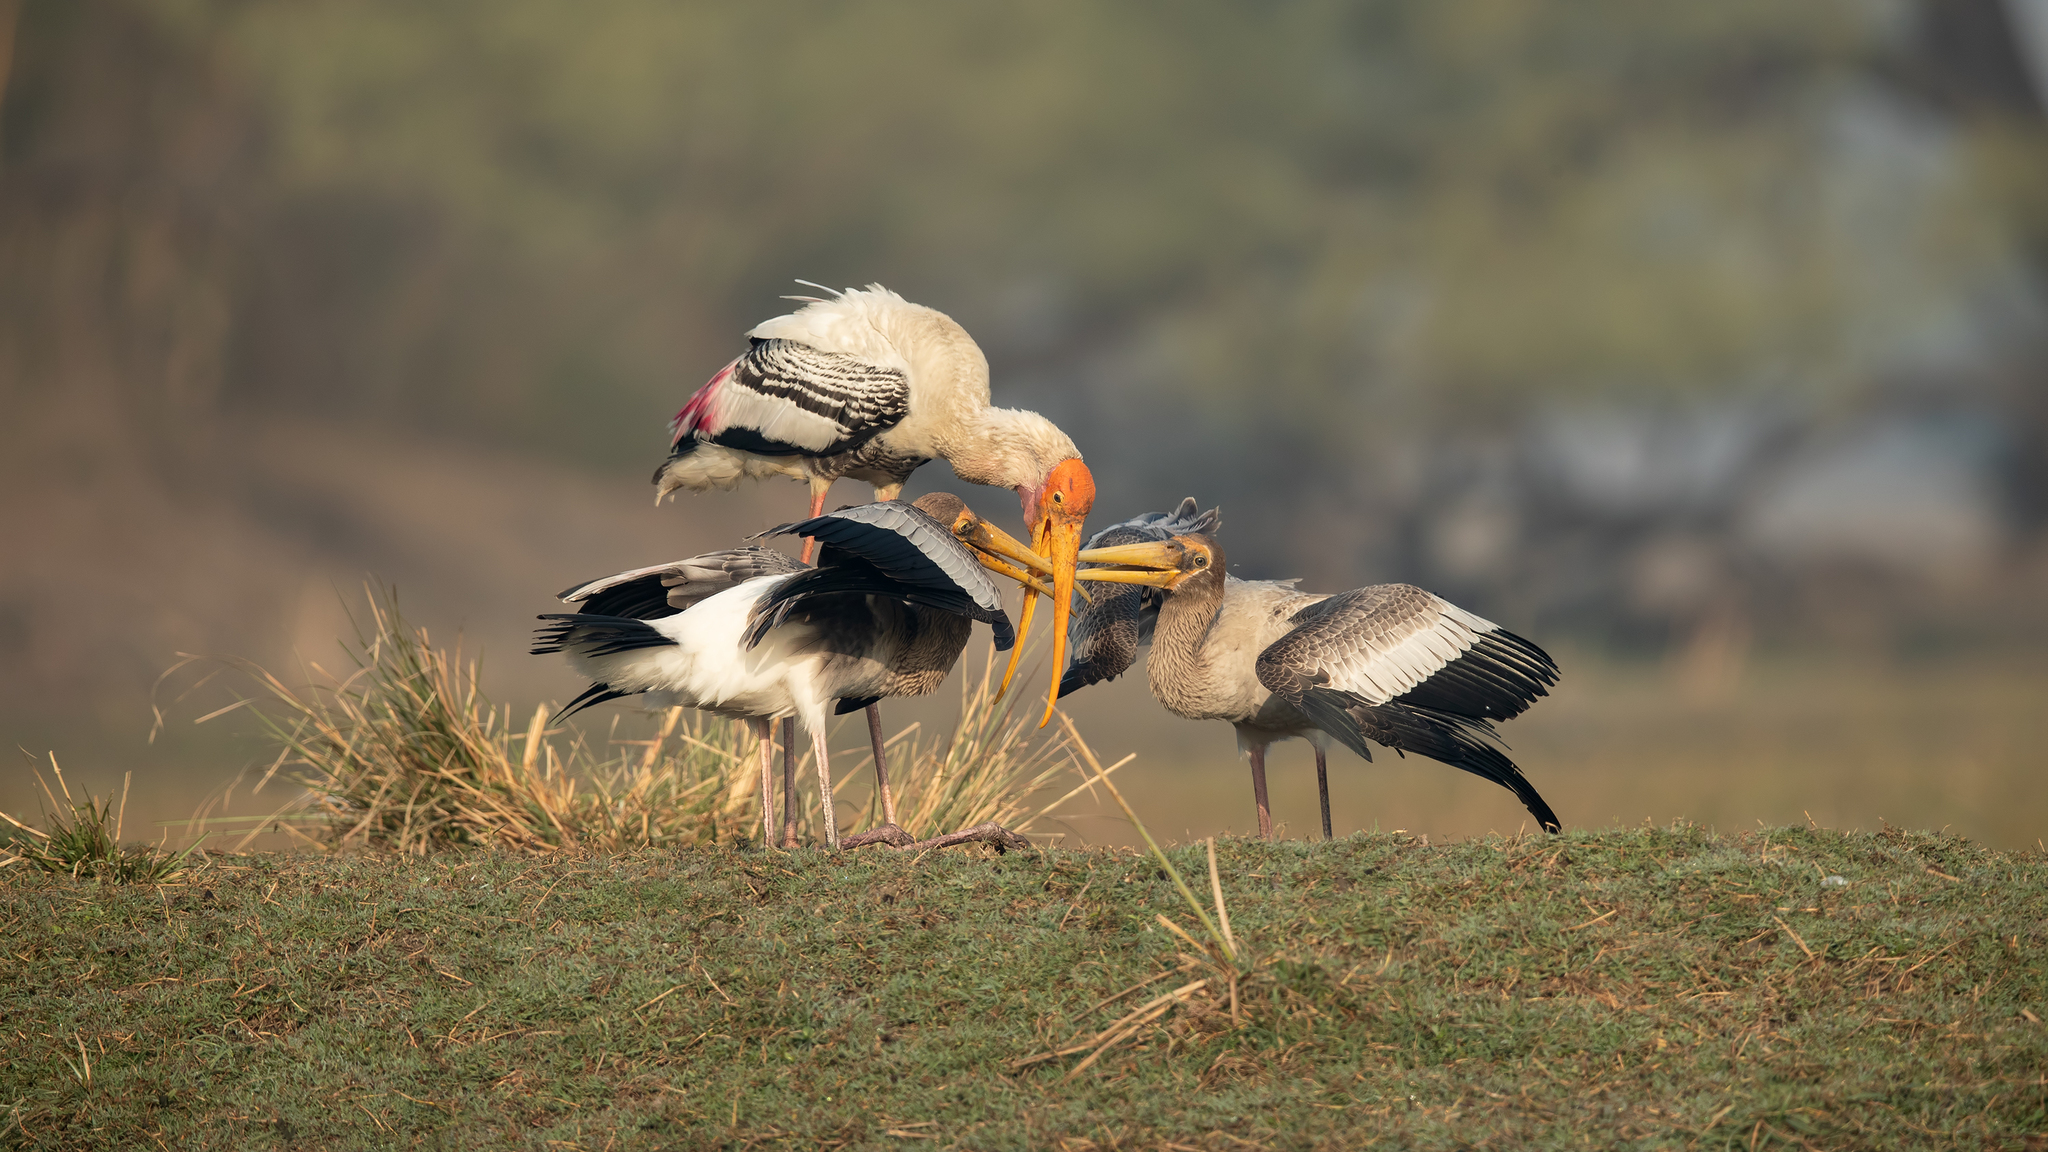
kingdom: Animalia
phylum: Chordata
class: Aves
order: Ciconiiformes
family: Ciconiidae
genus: Mycteria
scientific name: Mycteria leucocephala
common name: Painted stork
